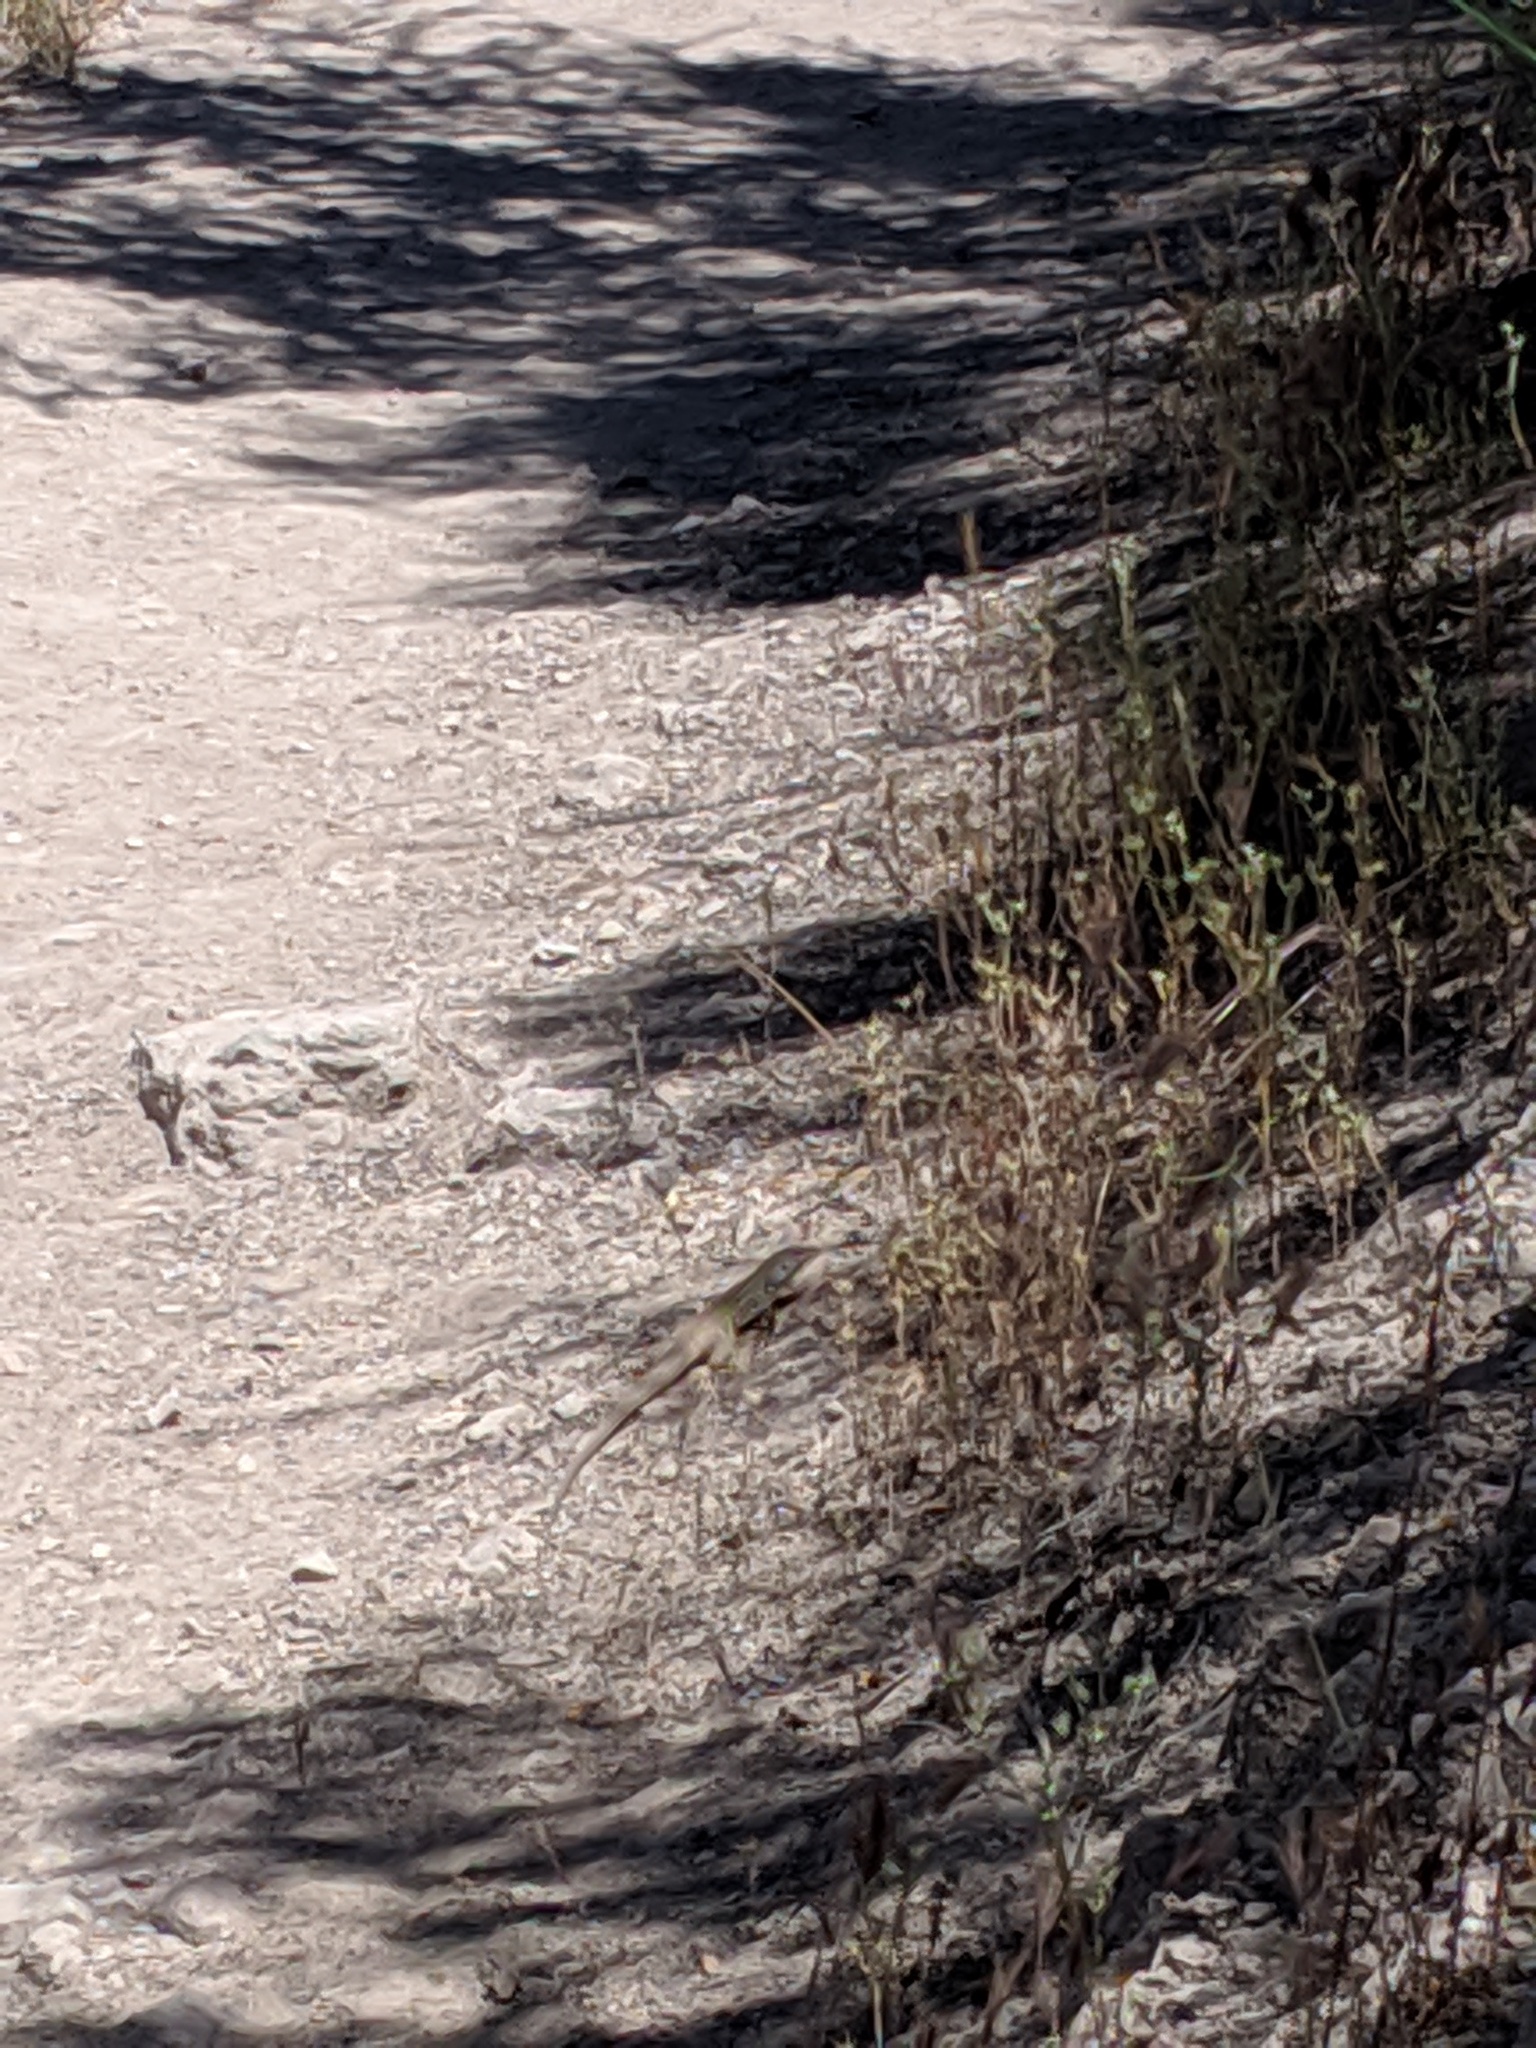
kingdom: Animalia
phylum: Chordata
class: Squamata
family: Teiidae
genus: Aspidoscelis
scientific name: Aspidoscelis tigris
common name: Tiger whiptail
